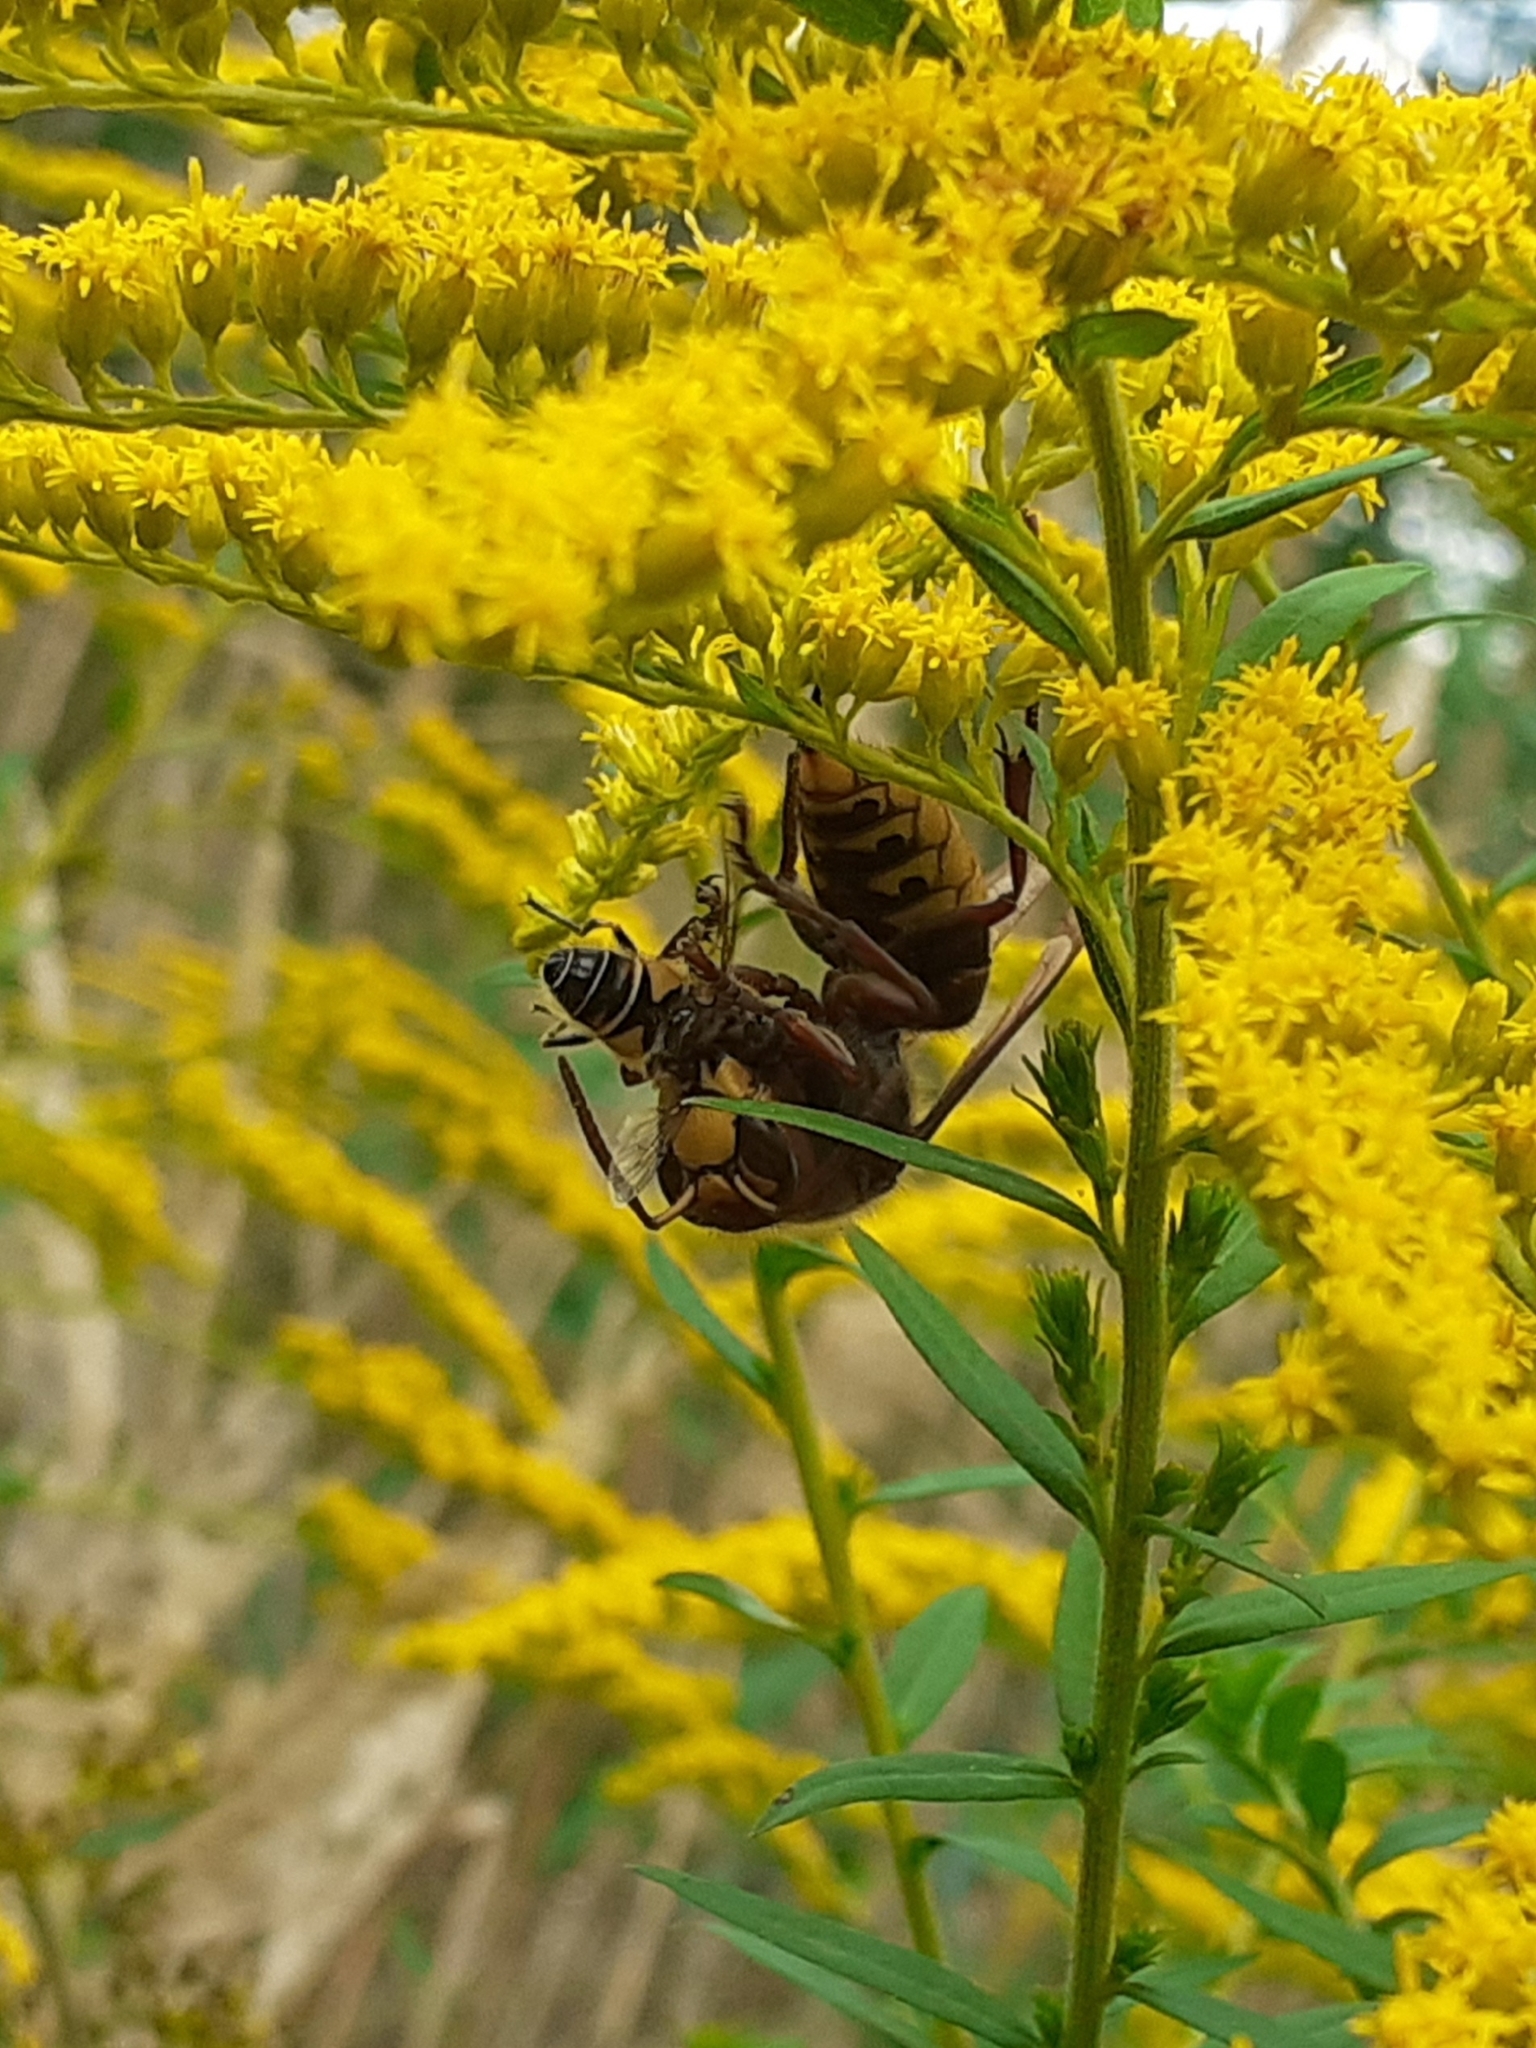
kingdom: Animalia
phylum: Arthropoda
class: Insecta
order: Hymenoptera
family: Vespidae
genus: Vespa
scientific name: Vespa crabro
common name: Hornet
